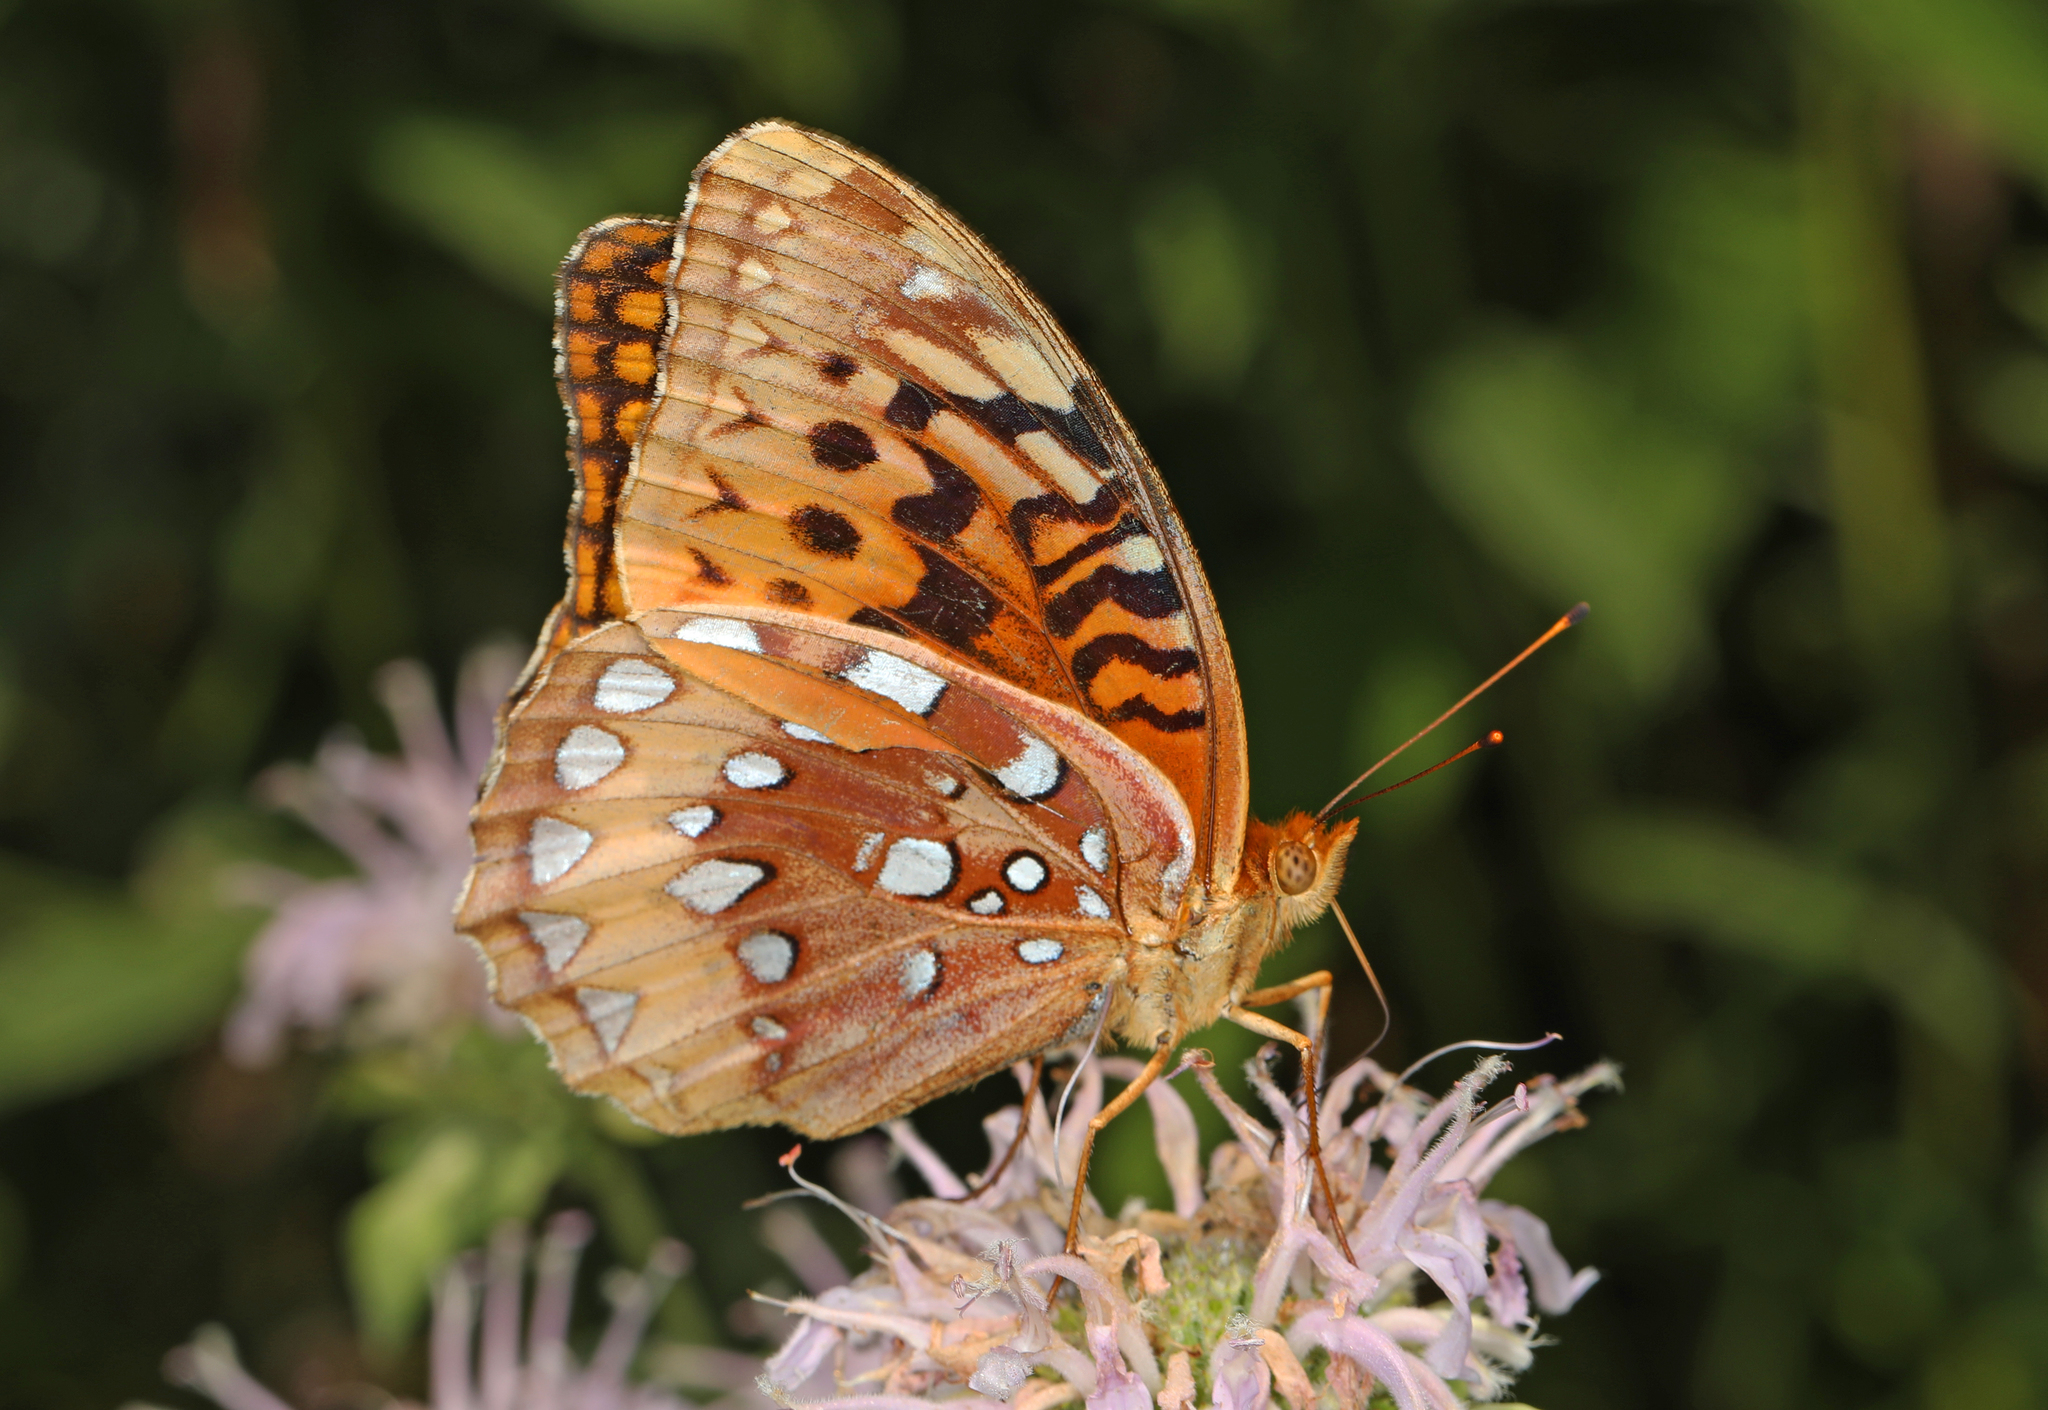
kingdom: Animalia
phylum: Arthropoda
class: Insecta
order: Lepidoptera
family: Nymphalidae
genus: Speyeria
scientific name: Speyeria cybele
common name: Great spangled fritillary
